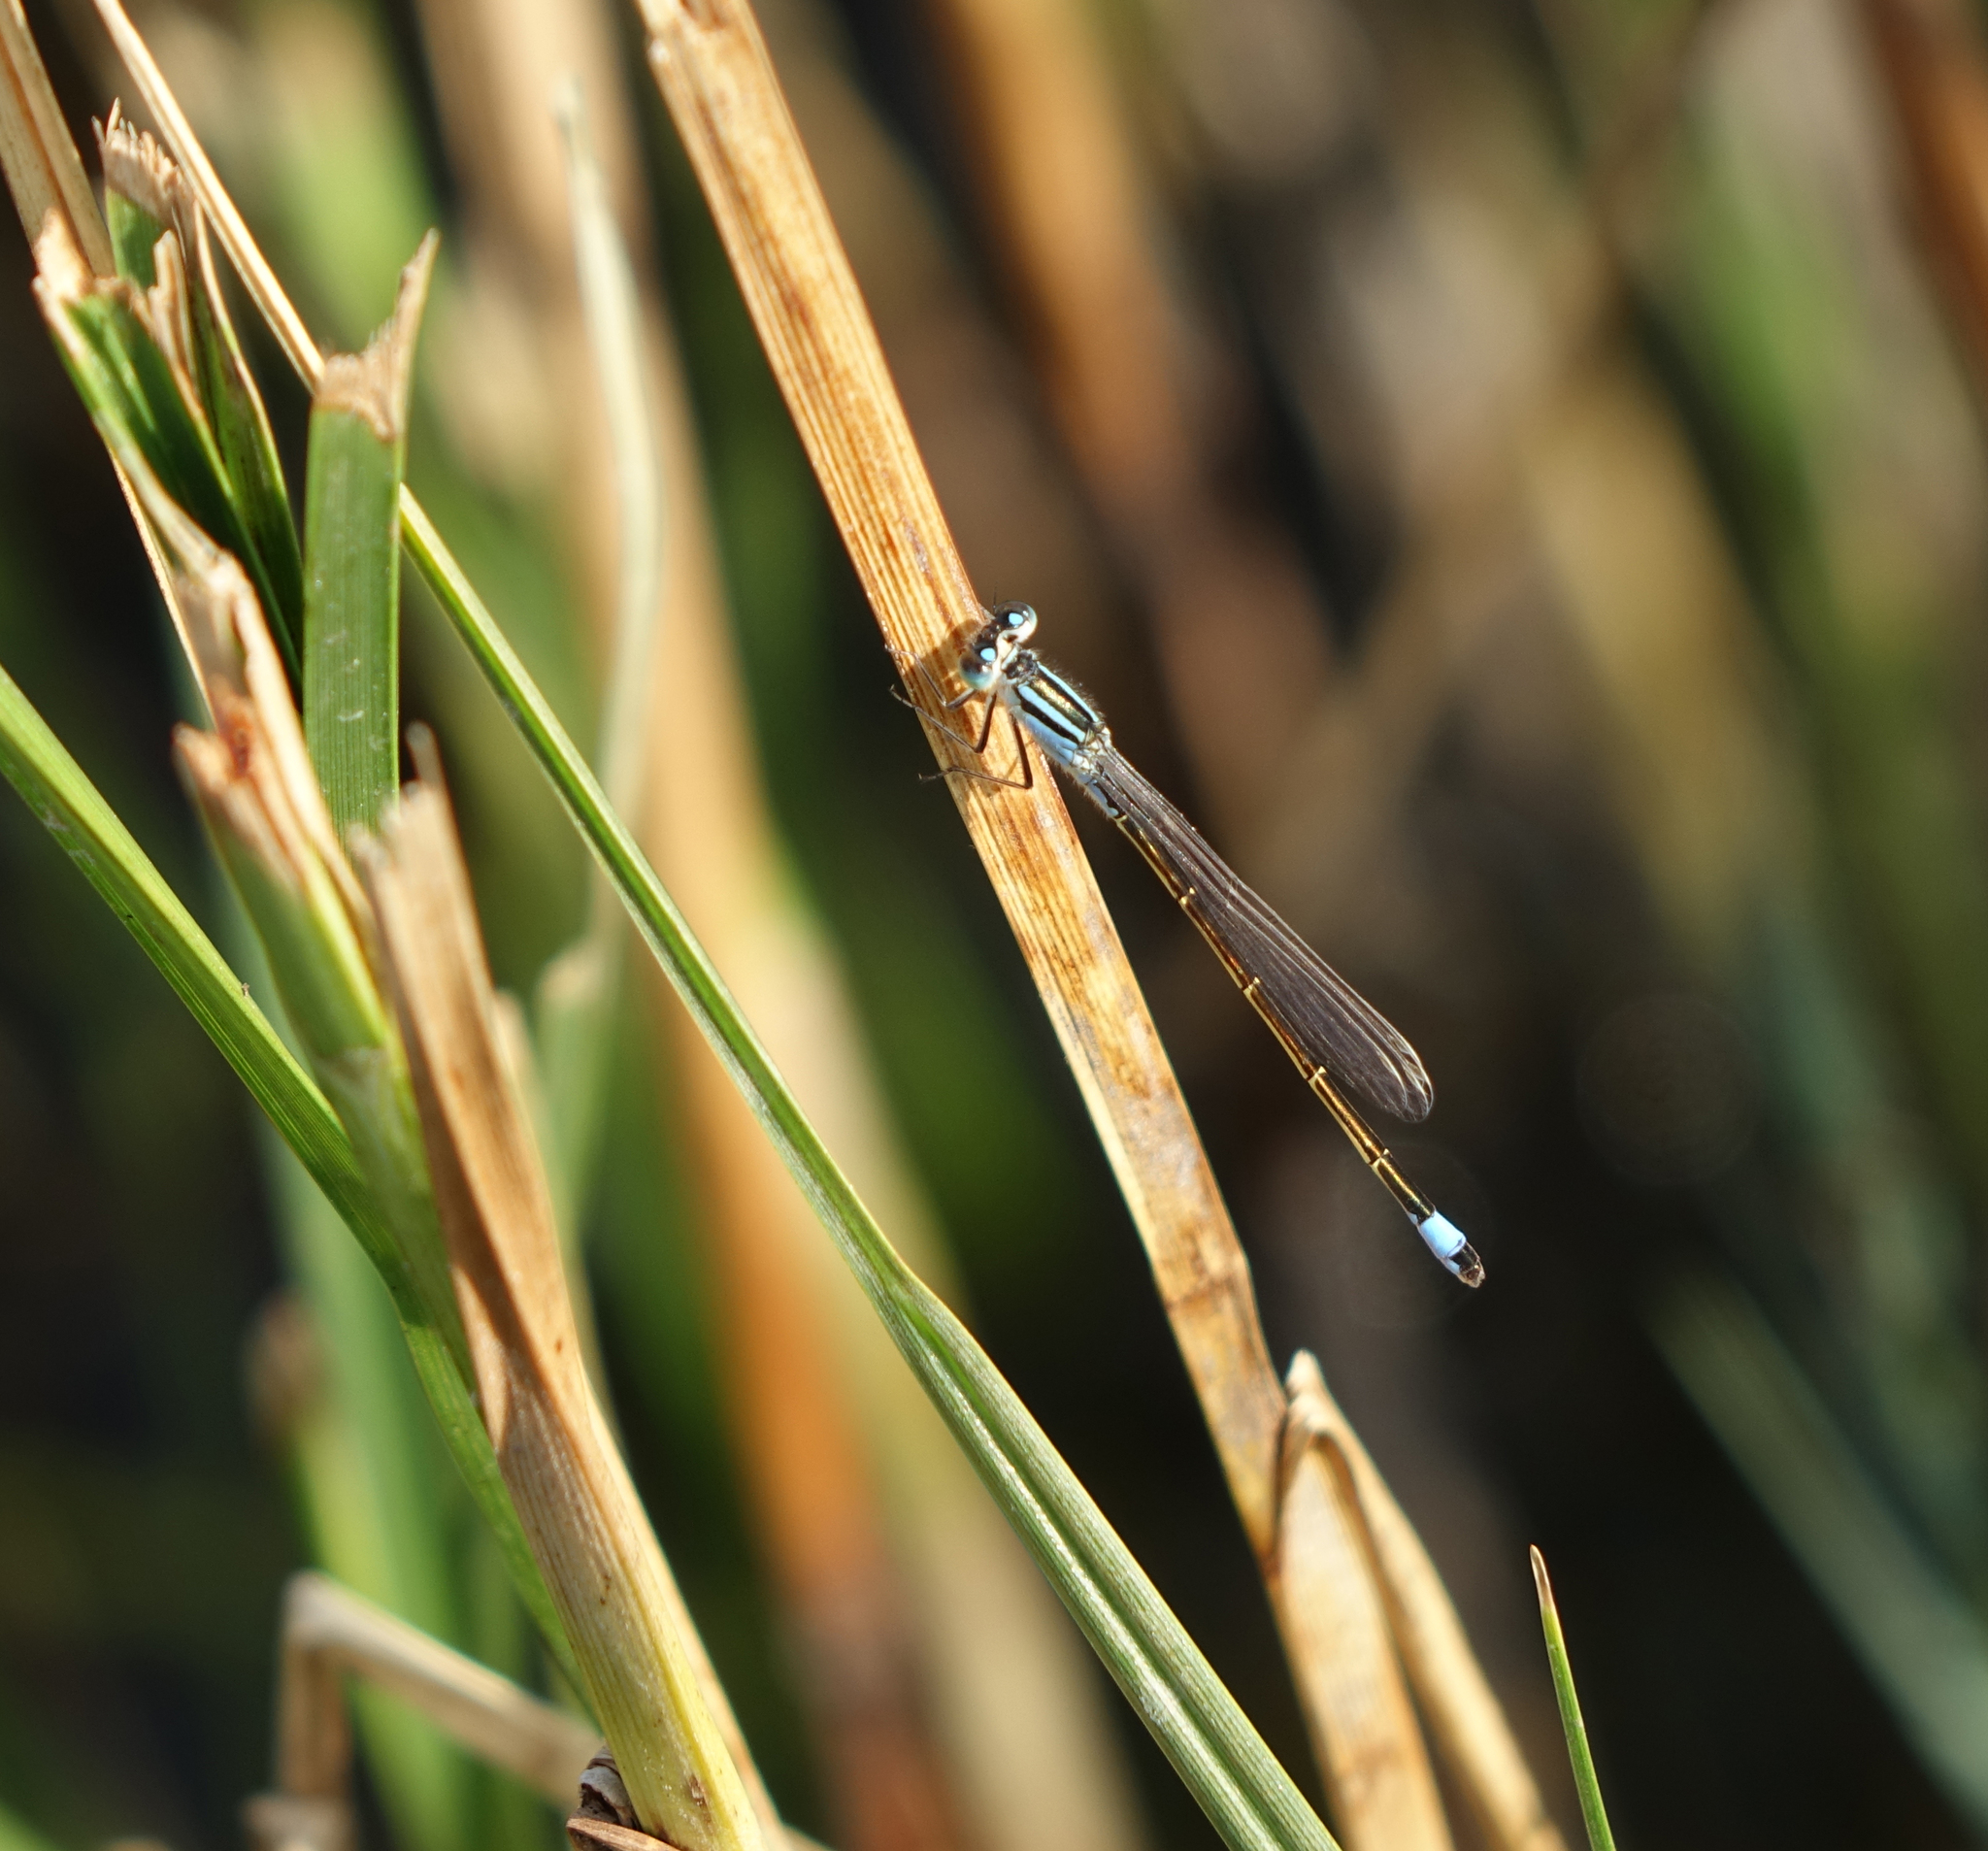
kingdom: Animalia
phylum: Arthropoda
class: Insecta
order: Odonata
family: Coenagrionidae
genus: Ischnura
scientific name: Ischnura elegans
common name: Blue-tailed damselfly
